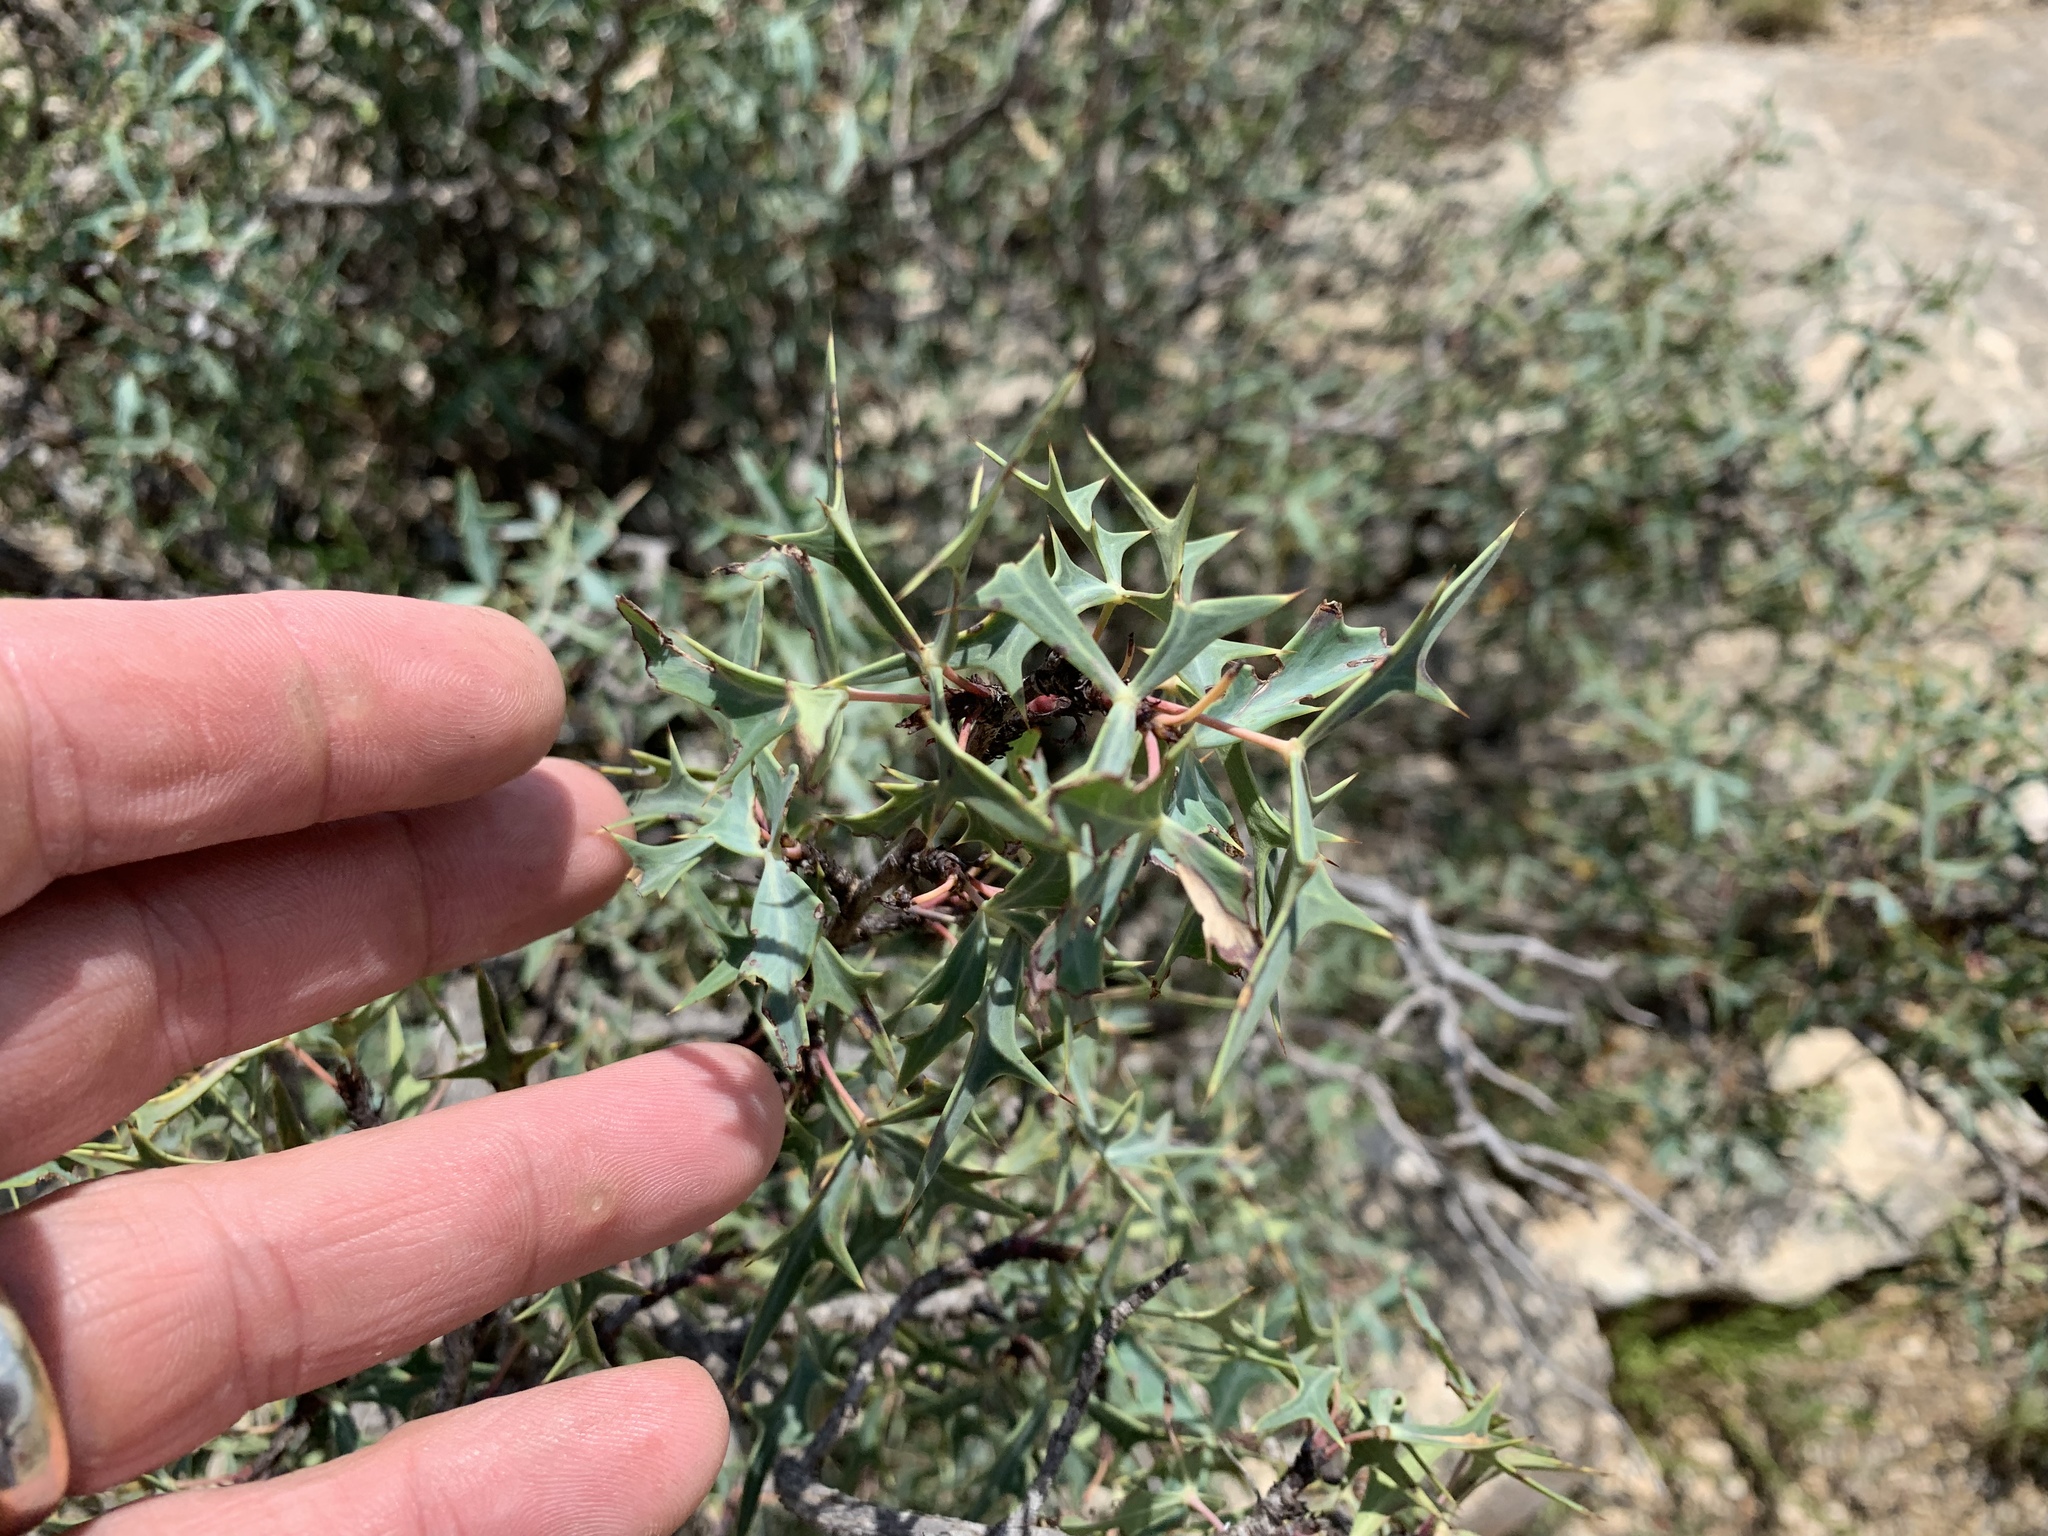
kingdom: Plantae
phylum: Tracheophyta
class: Magnoliopsida
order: Ranunculales
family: Berberidaceae
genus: Alloberberis
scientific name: Alloberberis trifoliolata
